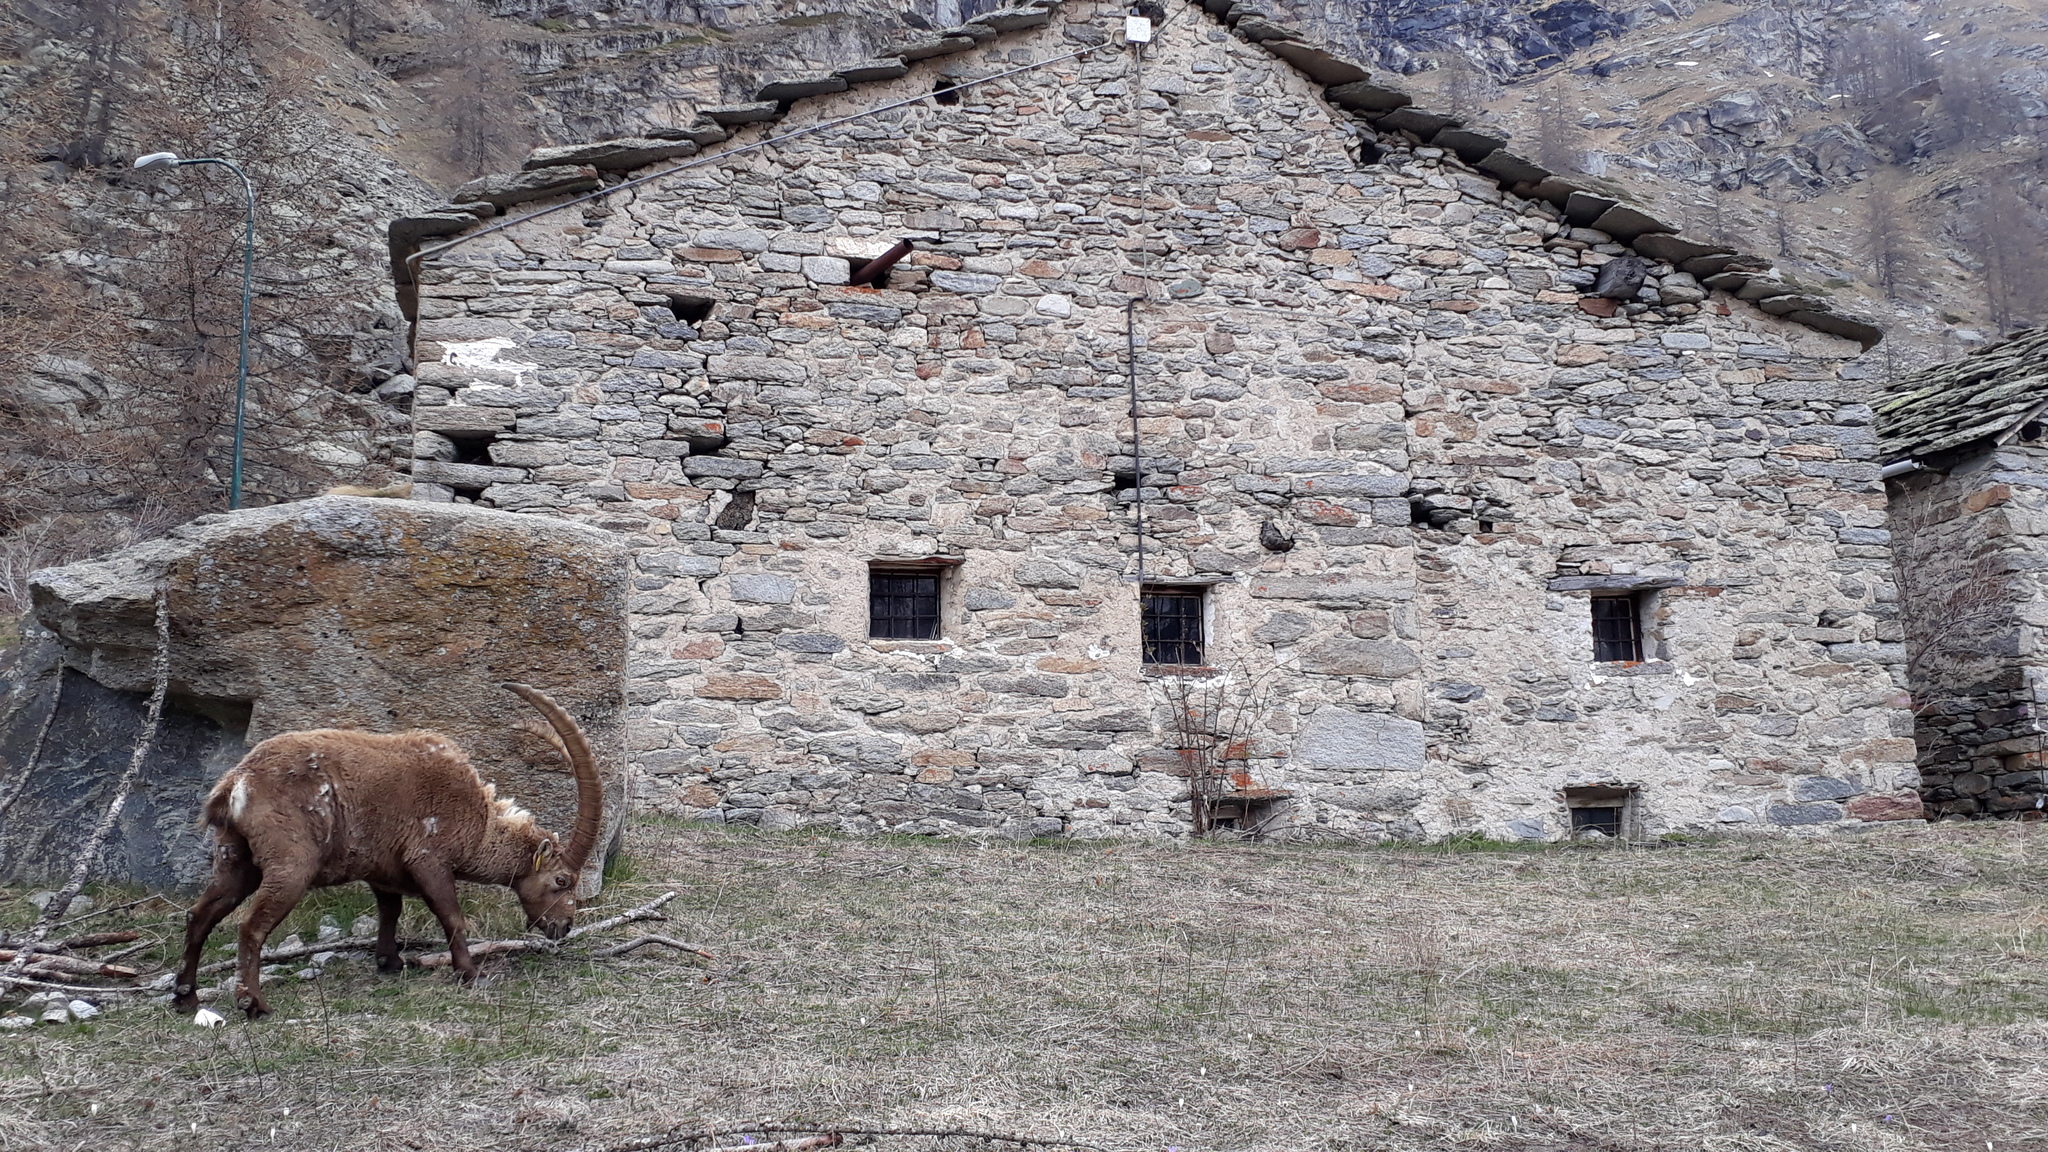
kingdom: Animalia
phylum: Chordata
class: Mammalia
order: Artiodactyla
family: Bovidae
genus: Capra
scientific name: Capra ibex
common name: Alpine ibex
